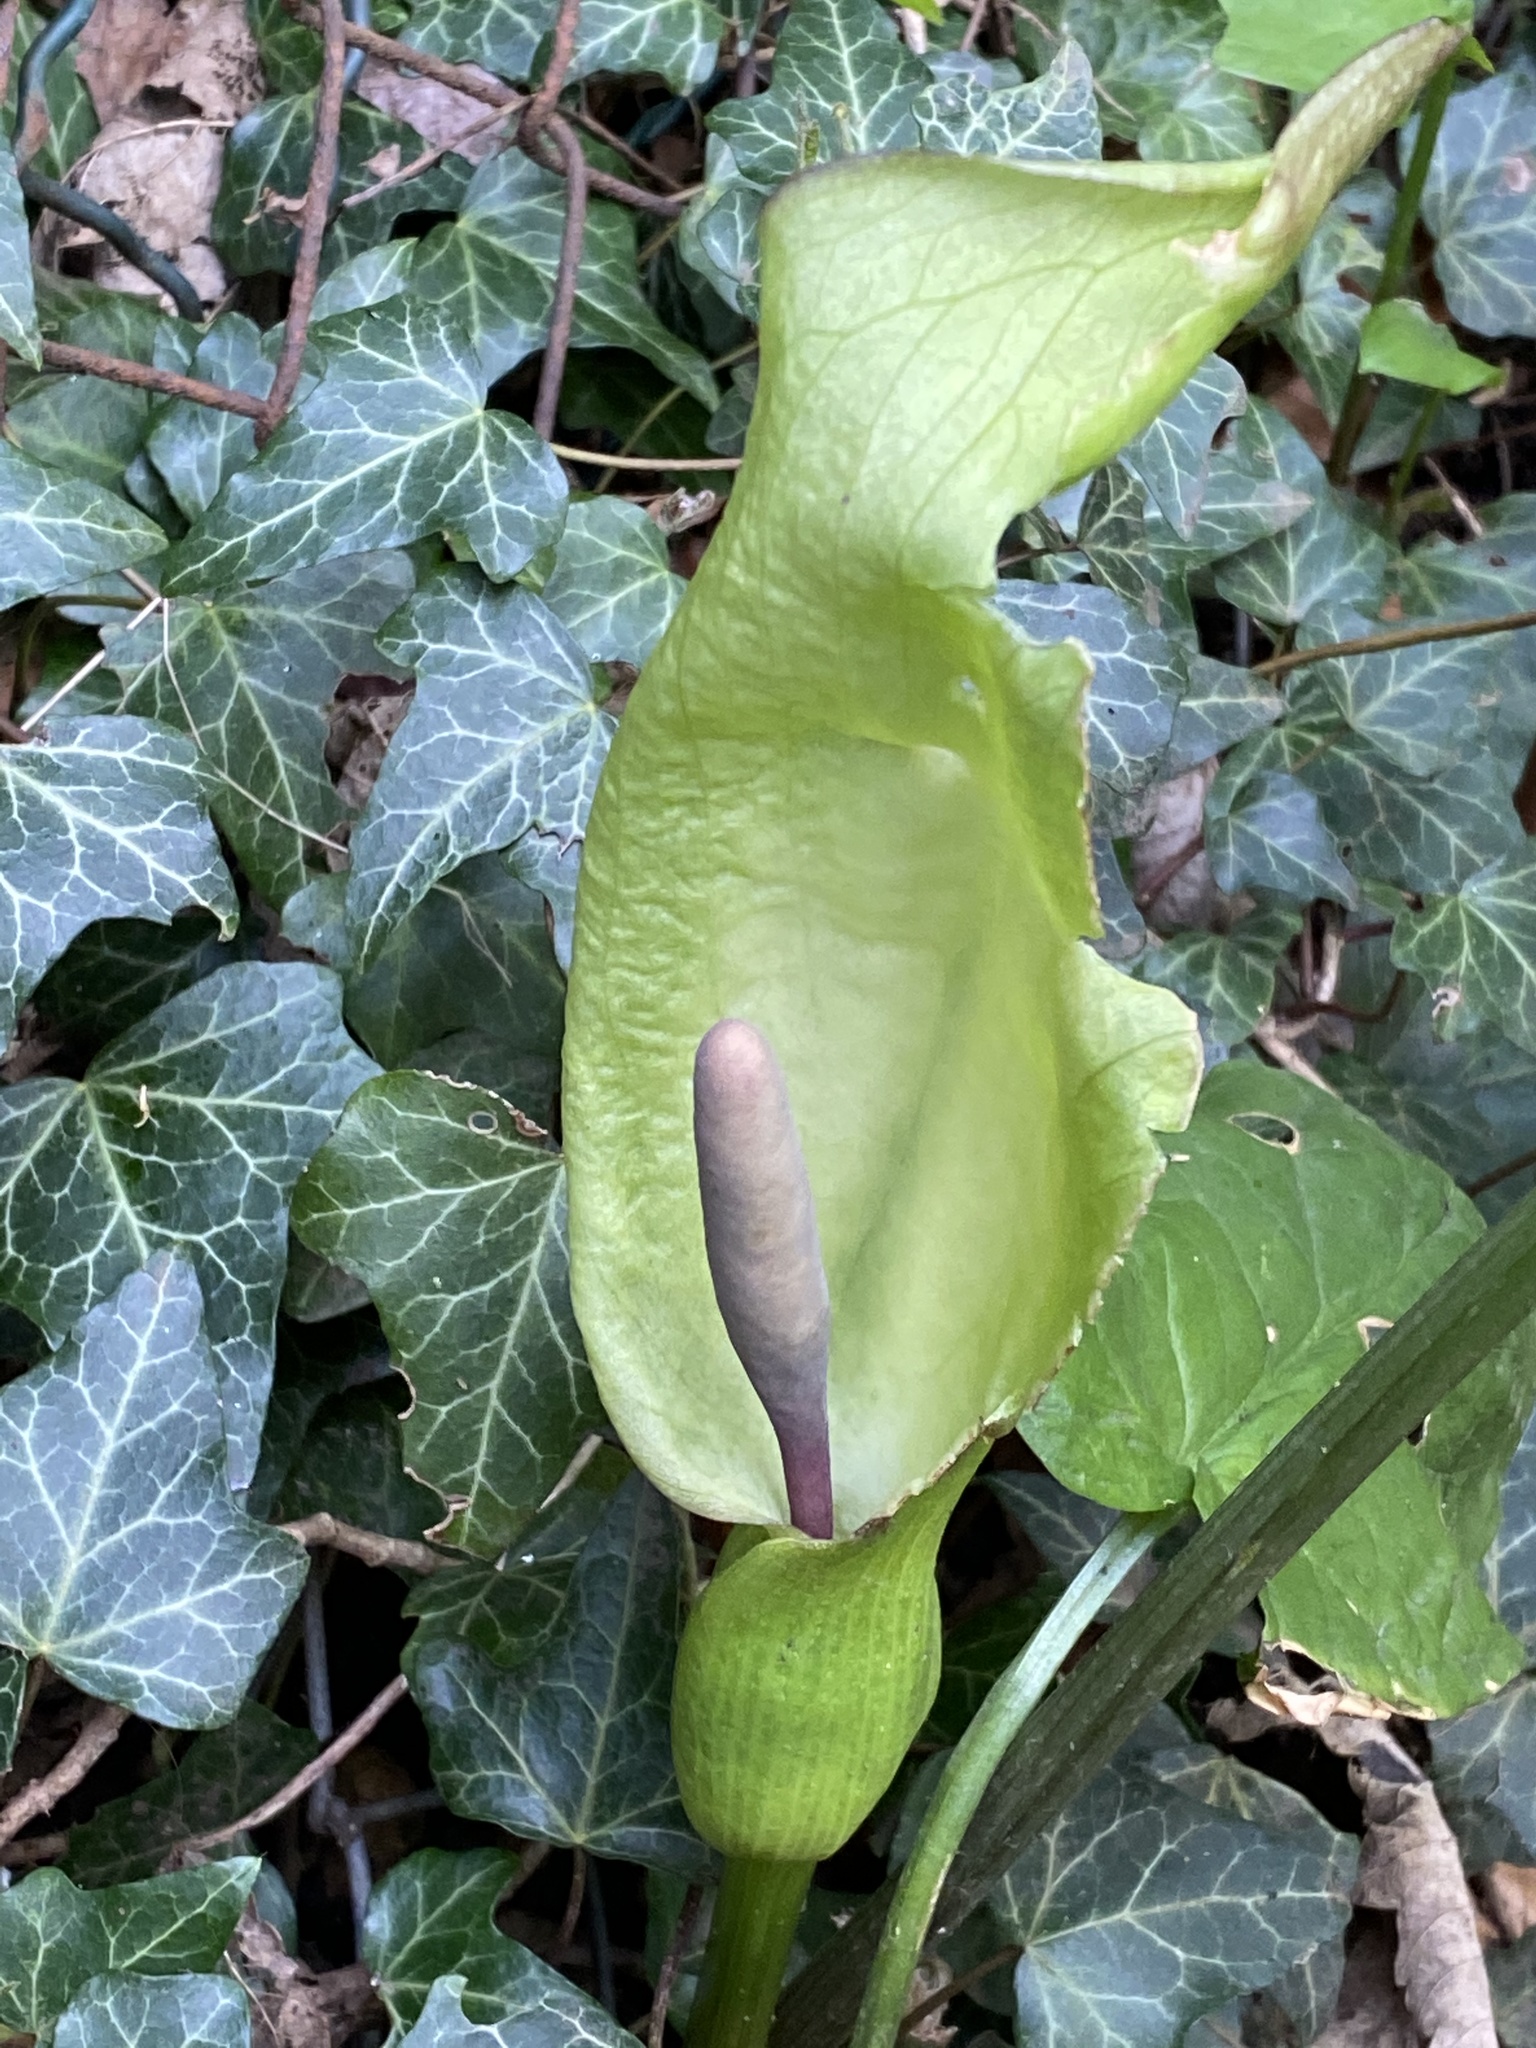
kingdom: Plantae
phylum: Tracheophyta
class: Liliopsida
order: Alismatales
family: Araceae
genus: Arum
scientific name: Arum maculatum
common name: Lords-and-ladies
